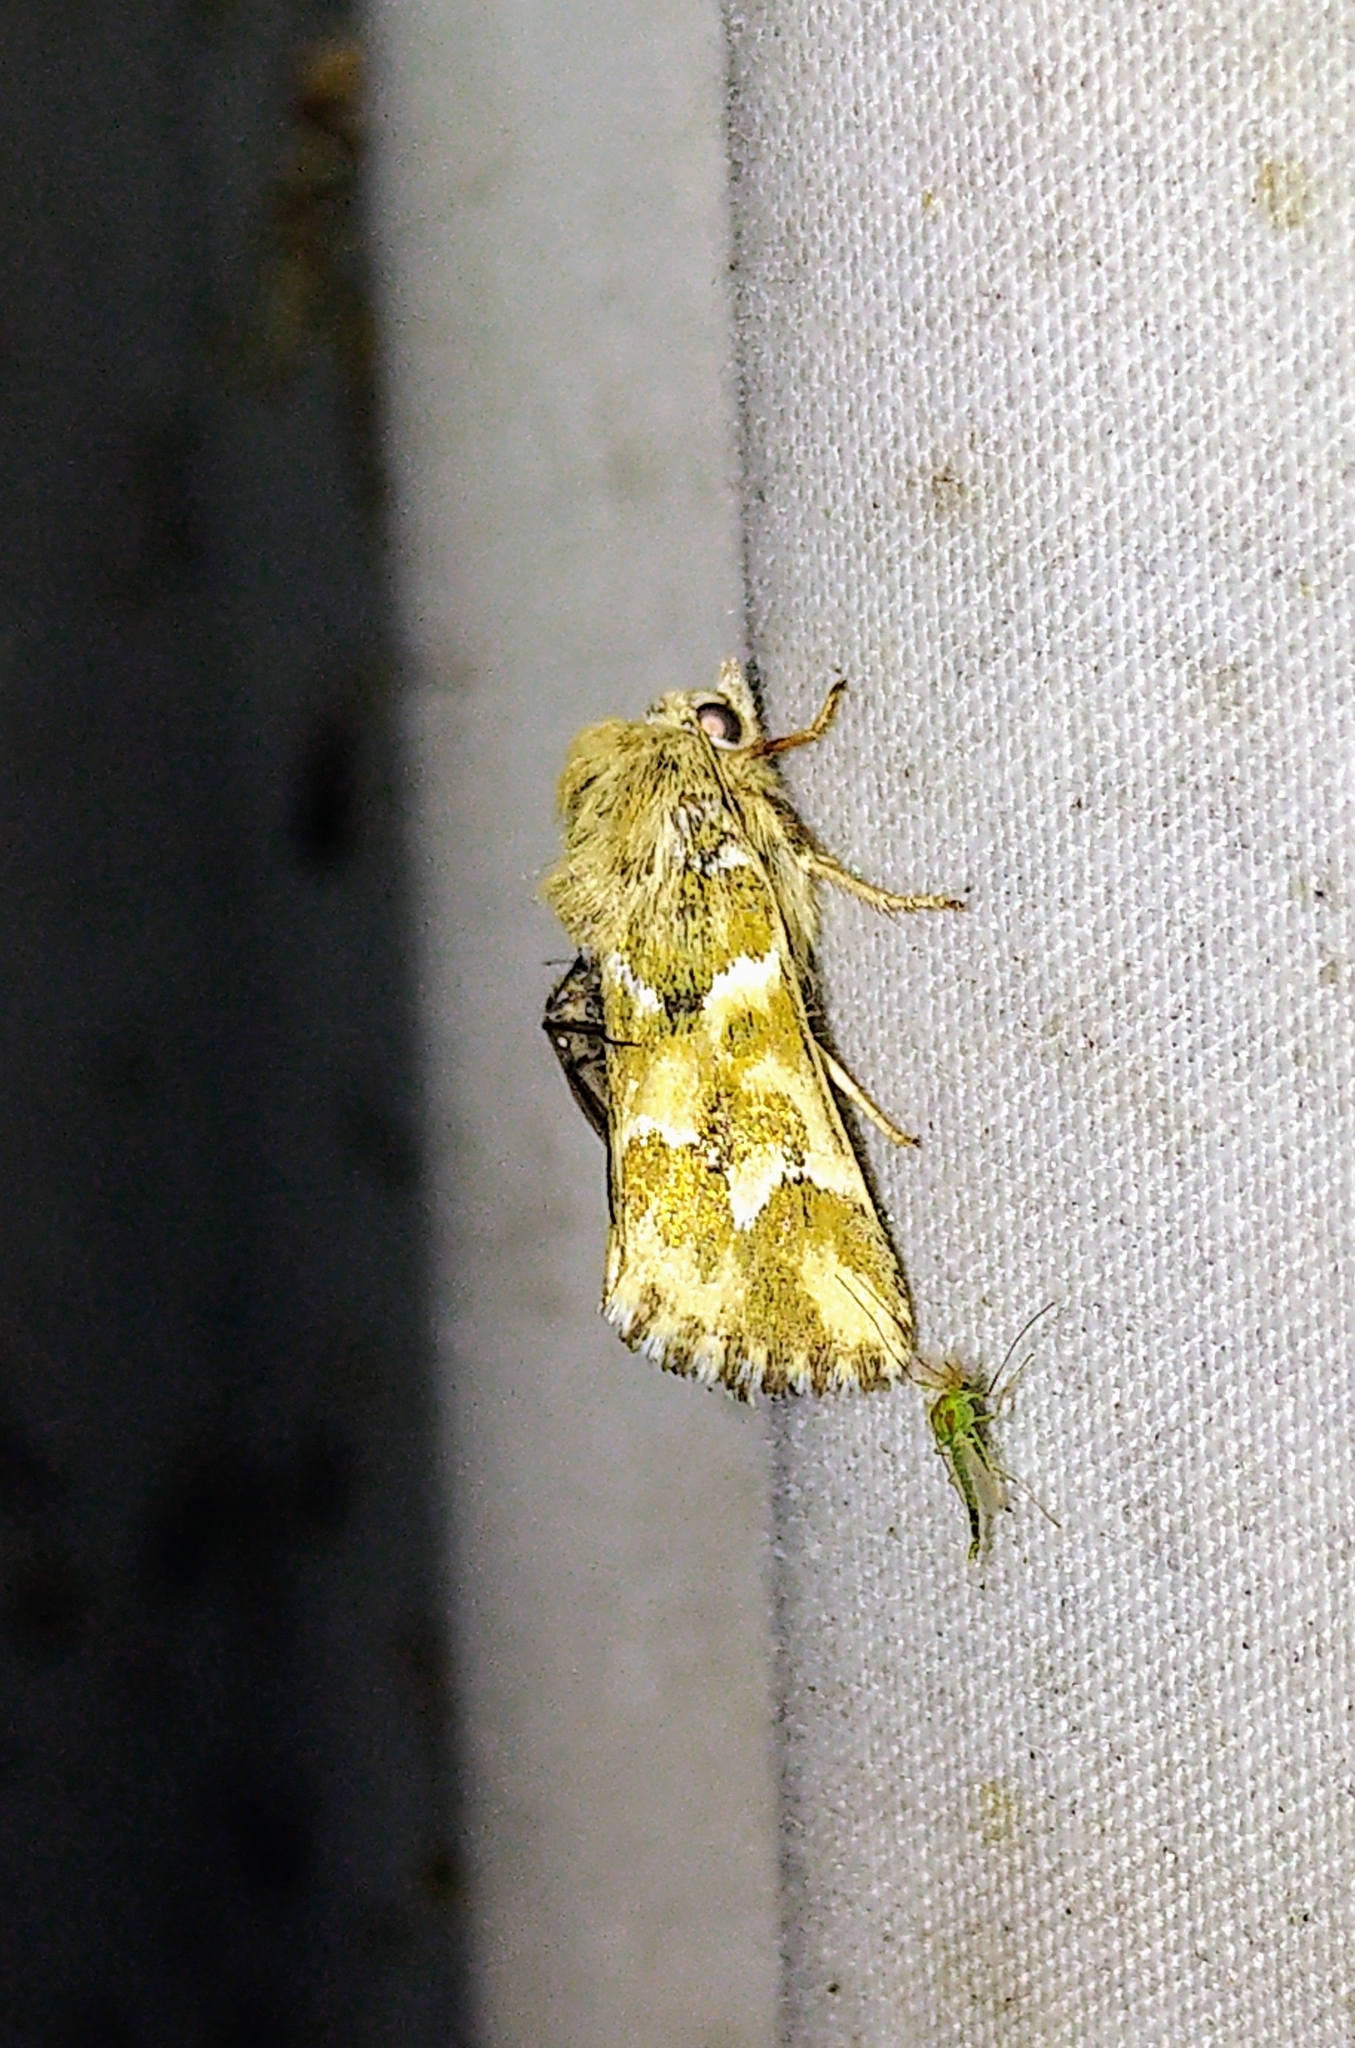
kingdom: Animalia
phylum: Arthropoda
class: Insecta
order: Lepidoptera
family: Noctuidae
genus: Schinia
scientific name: Schinia meadi
